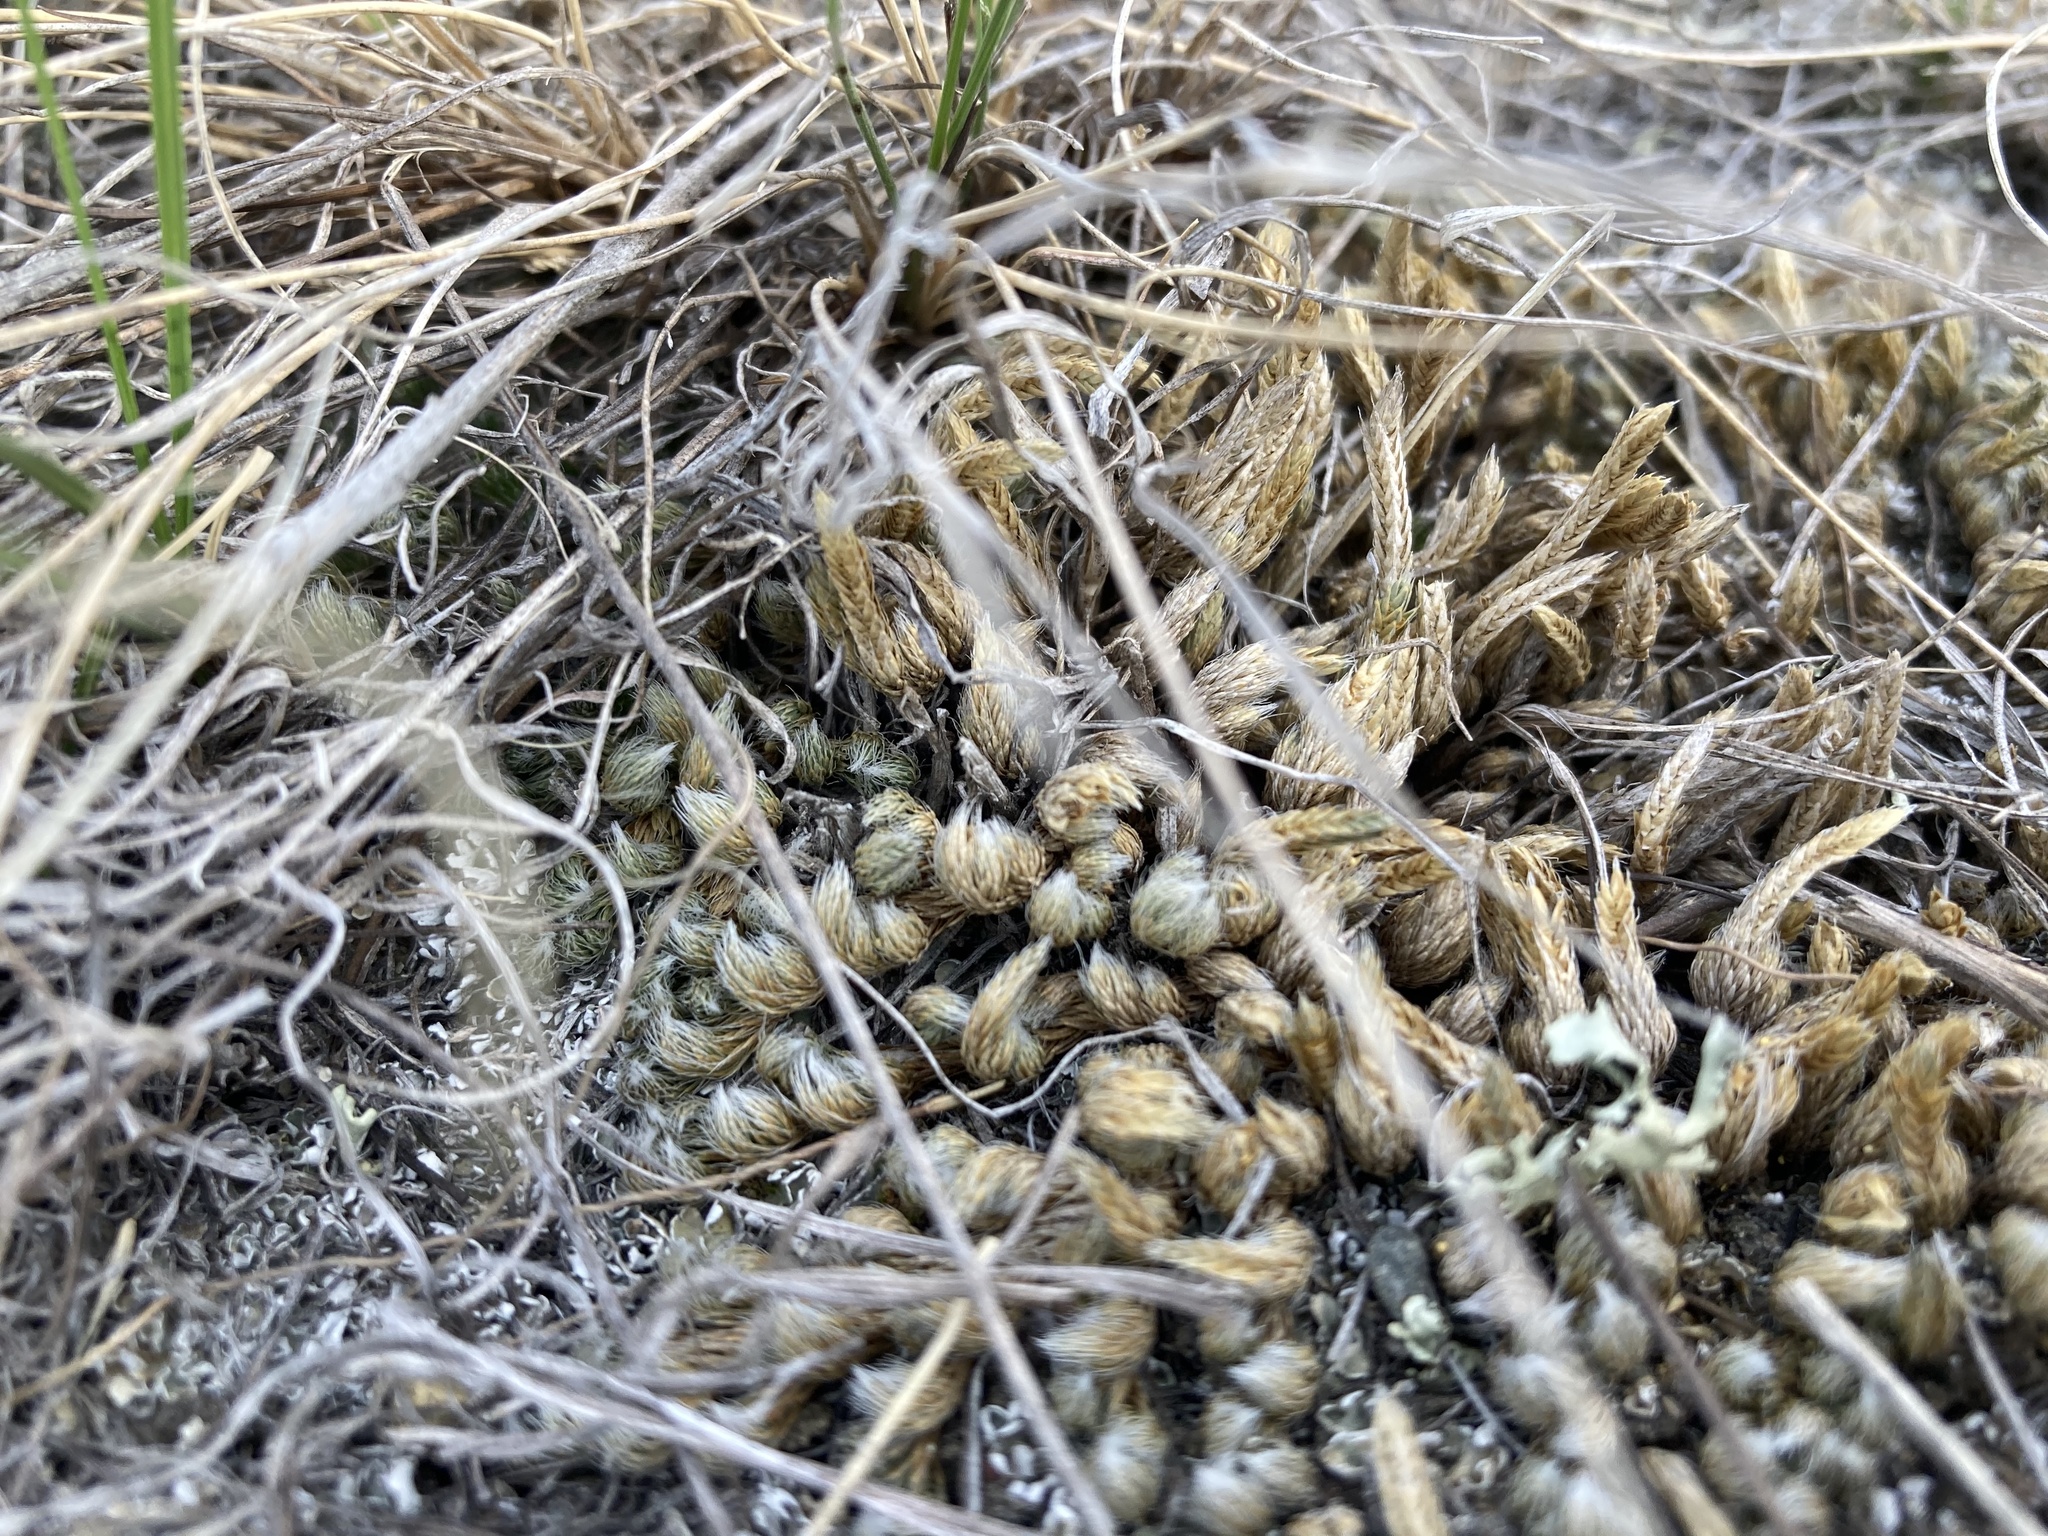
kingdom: Plantae
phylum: Tracheophyta
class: Lycopodiopsida
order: Selaginellales
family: Selaginellaceae
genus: Selaginella
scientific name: Selaginella densa
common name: Mountain spike-moss
